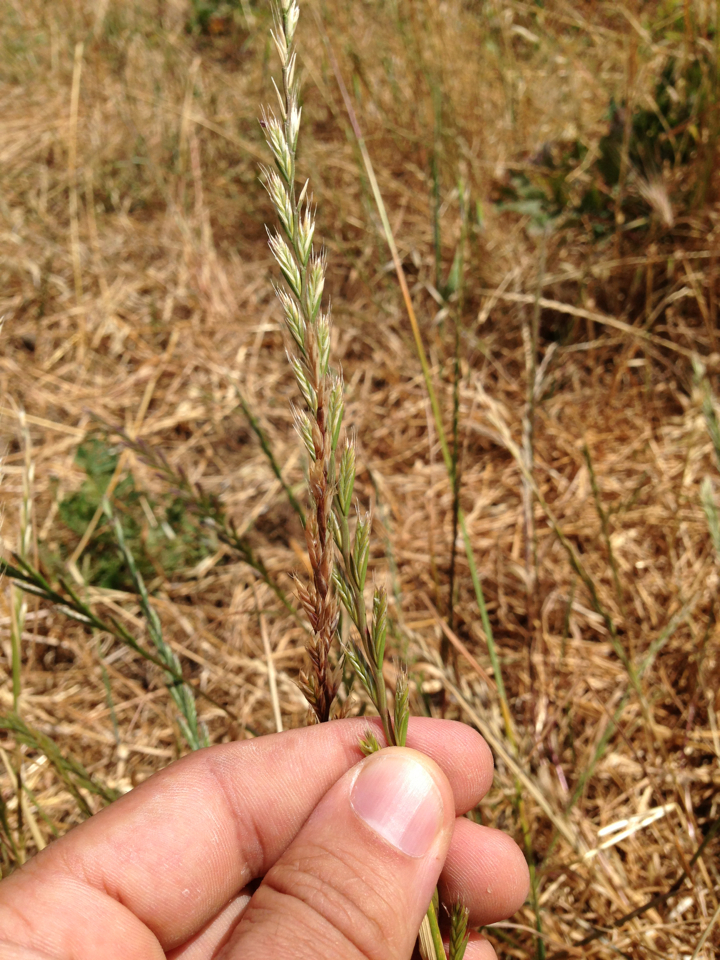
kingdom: Plantae
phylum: Tracheophyta
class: Liliopsida
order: Poales
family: Poaceae
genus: Lolium
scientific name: Lolium perenne
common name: Perennial ryegrass
